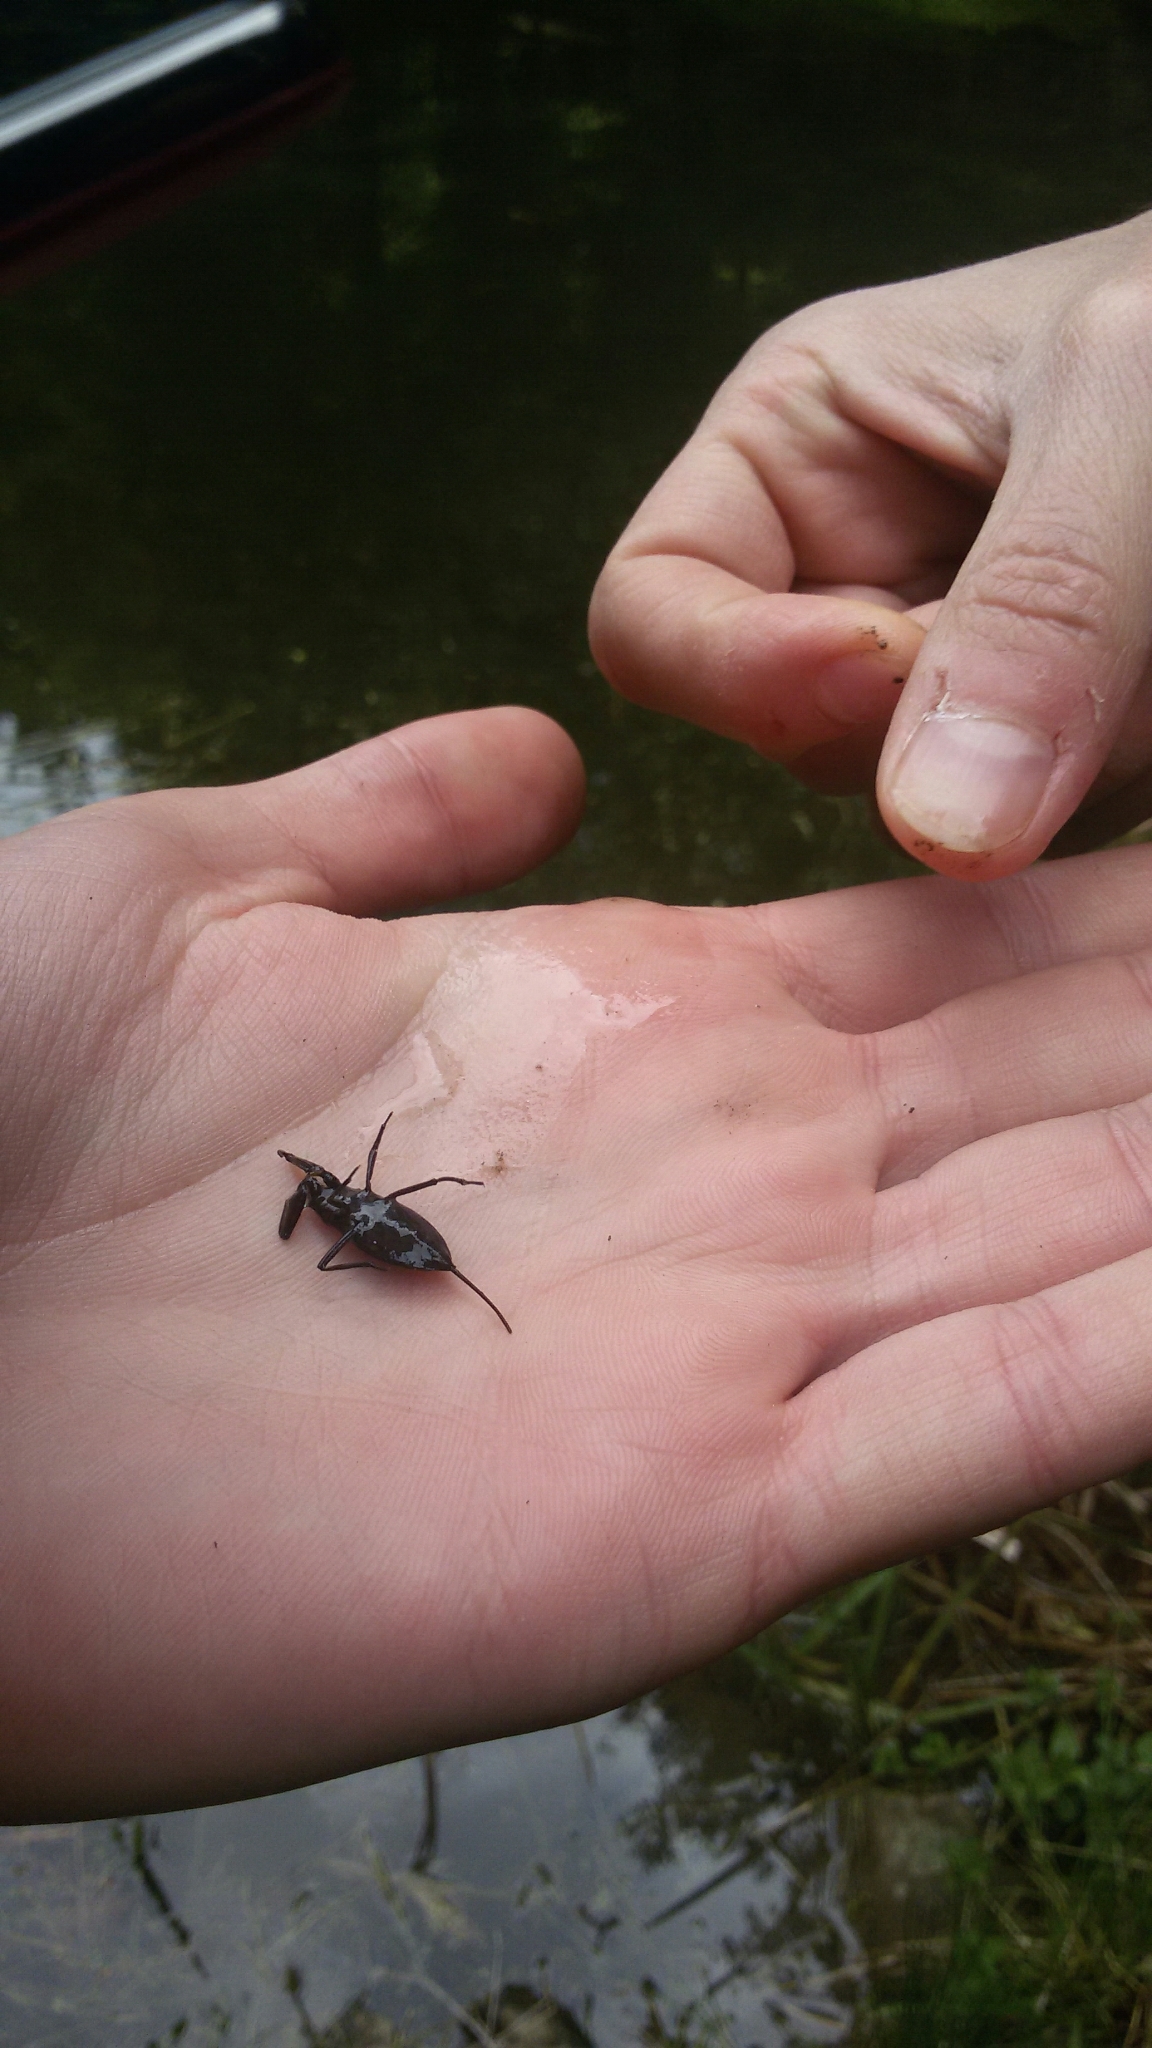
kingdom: Animalia
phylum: Arthropoda
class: Insecta
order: Hemiptera
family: Nepidae
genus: Nepa
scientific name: Nepa cinerea
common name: Water scorpion
